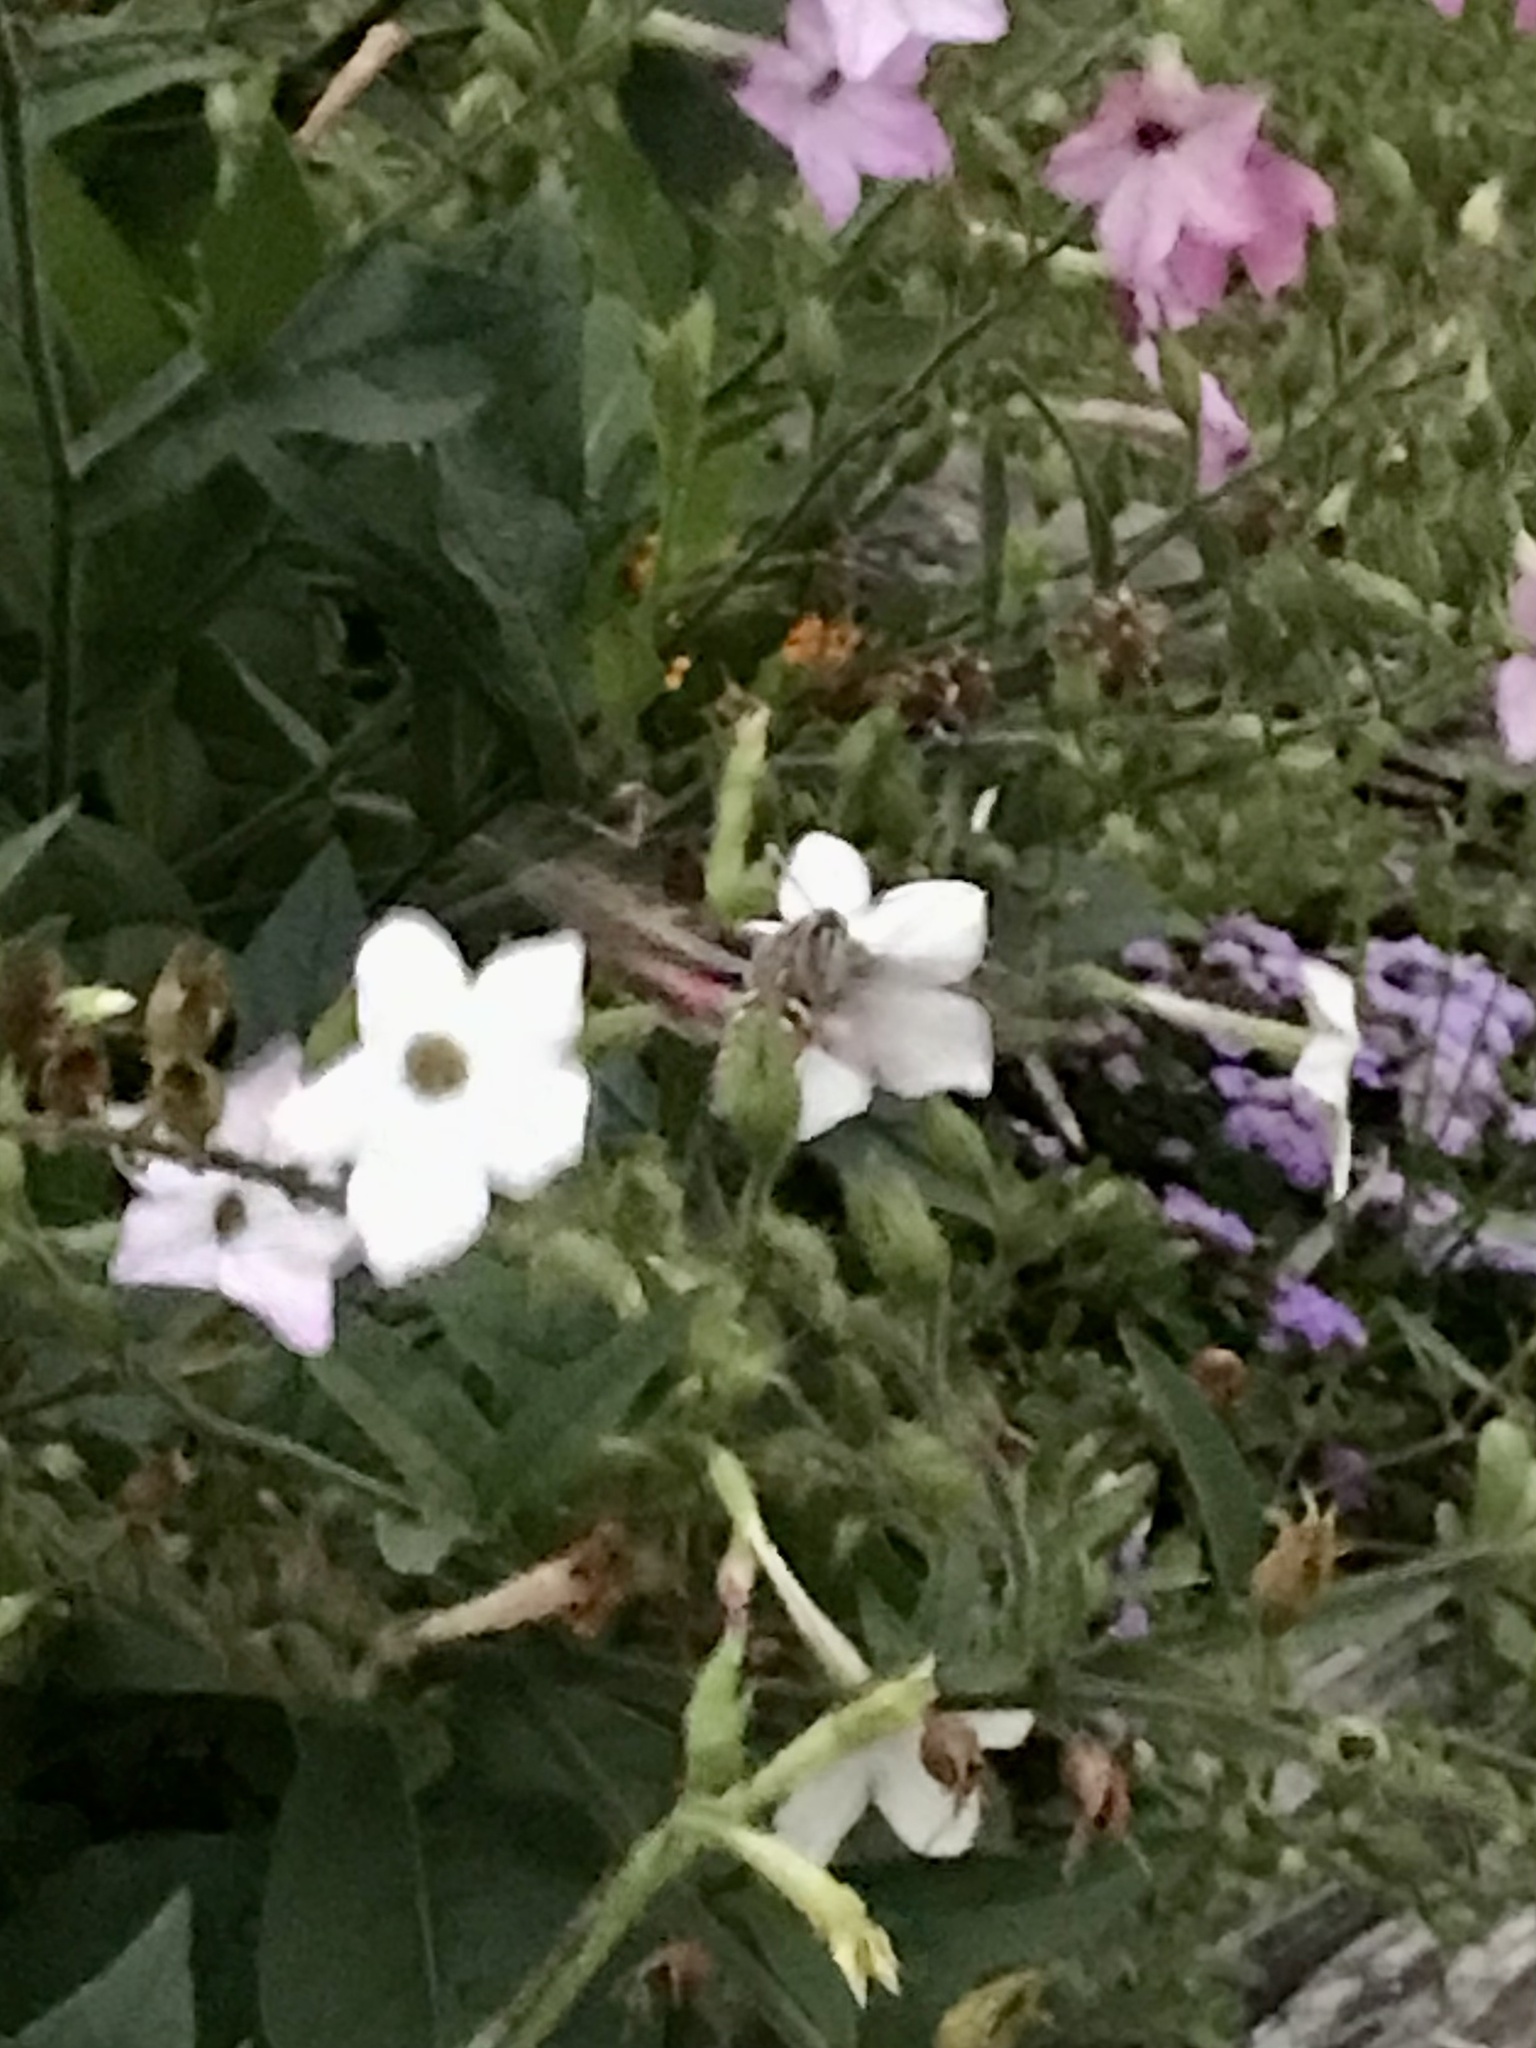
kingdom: Animalia
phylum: Arthropoda
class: Insecta
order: Lepidoptera
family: Sphingidae
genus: Hyles
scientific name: Hyles lineata
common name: White-lined sphinx
